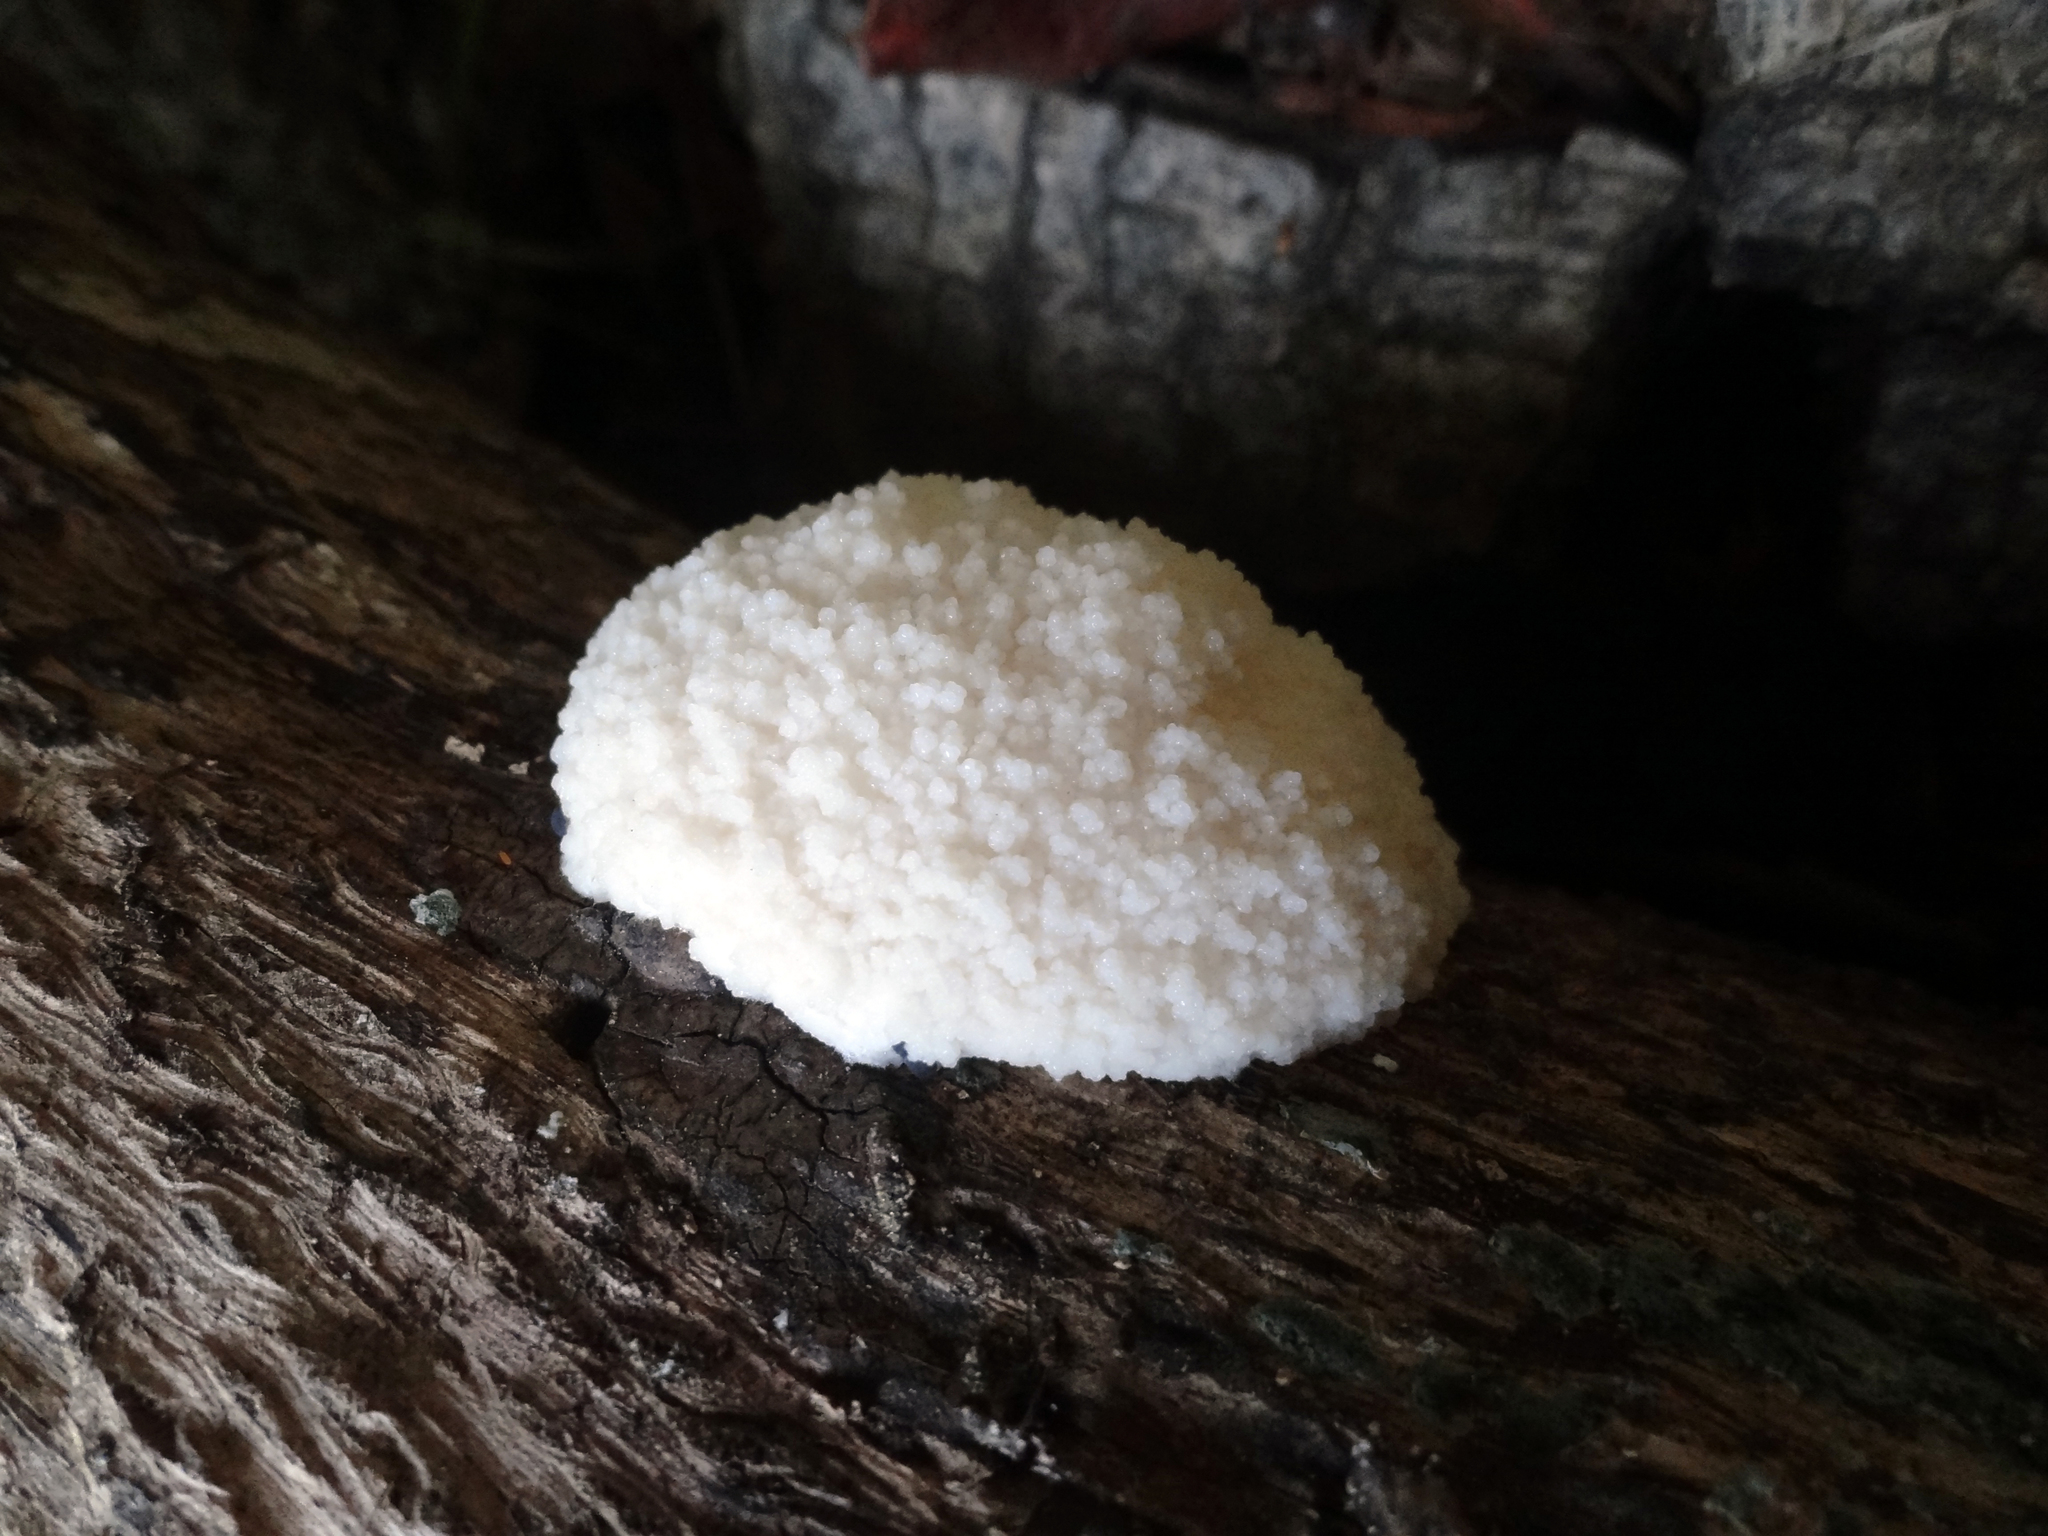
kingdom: Protozoa
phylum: Mycetozoa
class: Myxomycetes
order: Cribrariales
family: Tubiferaceae
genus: Reticularia
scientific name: Reticularia lycoperdon
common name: False puffball
